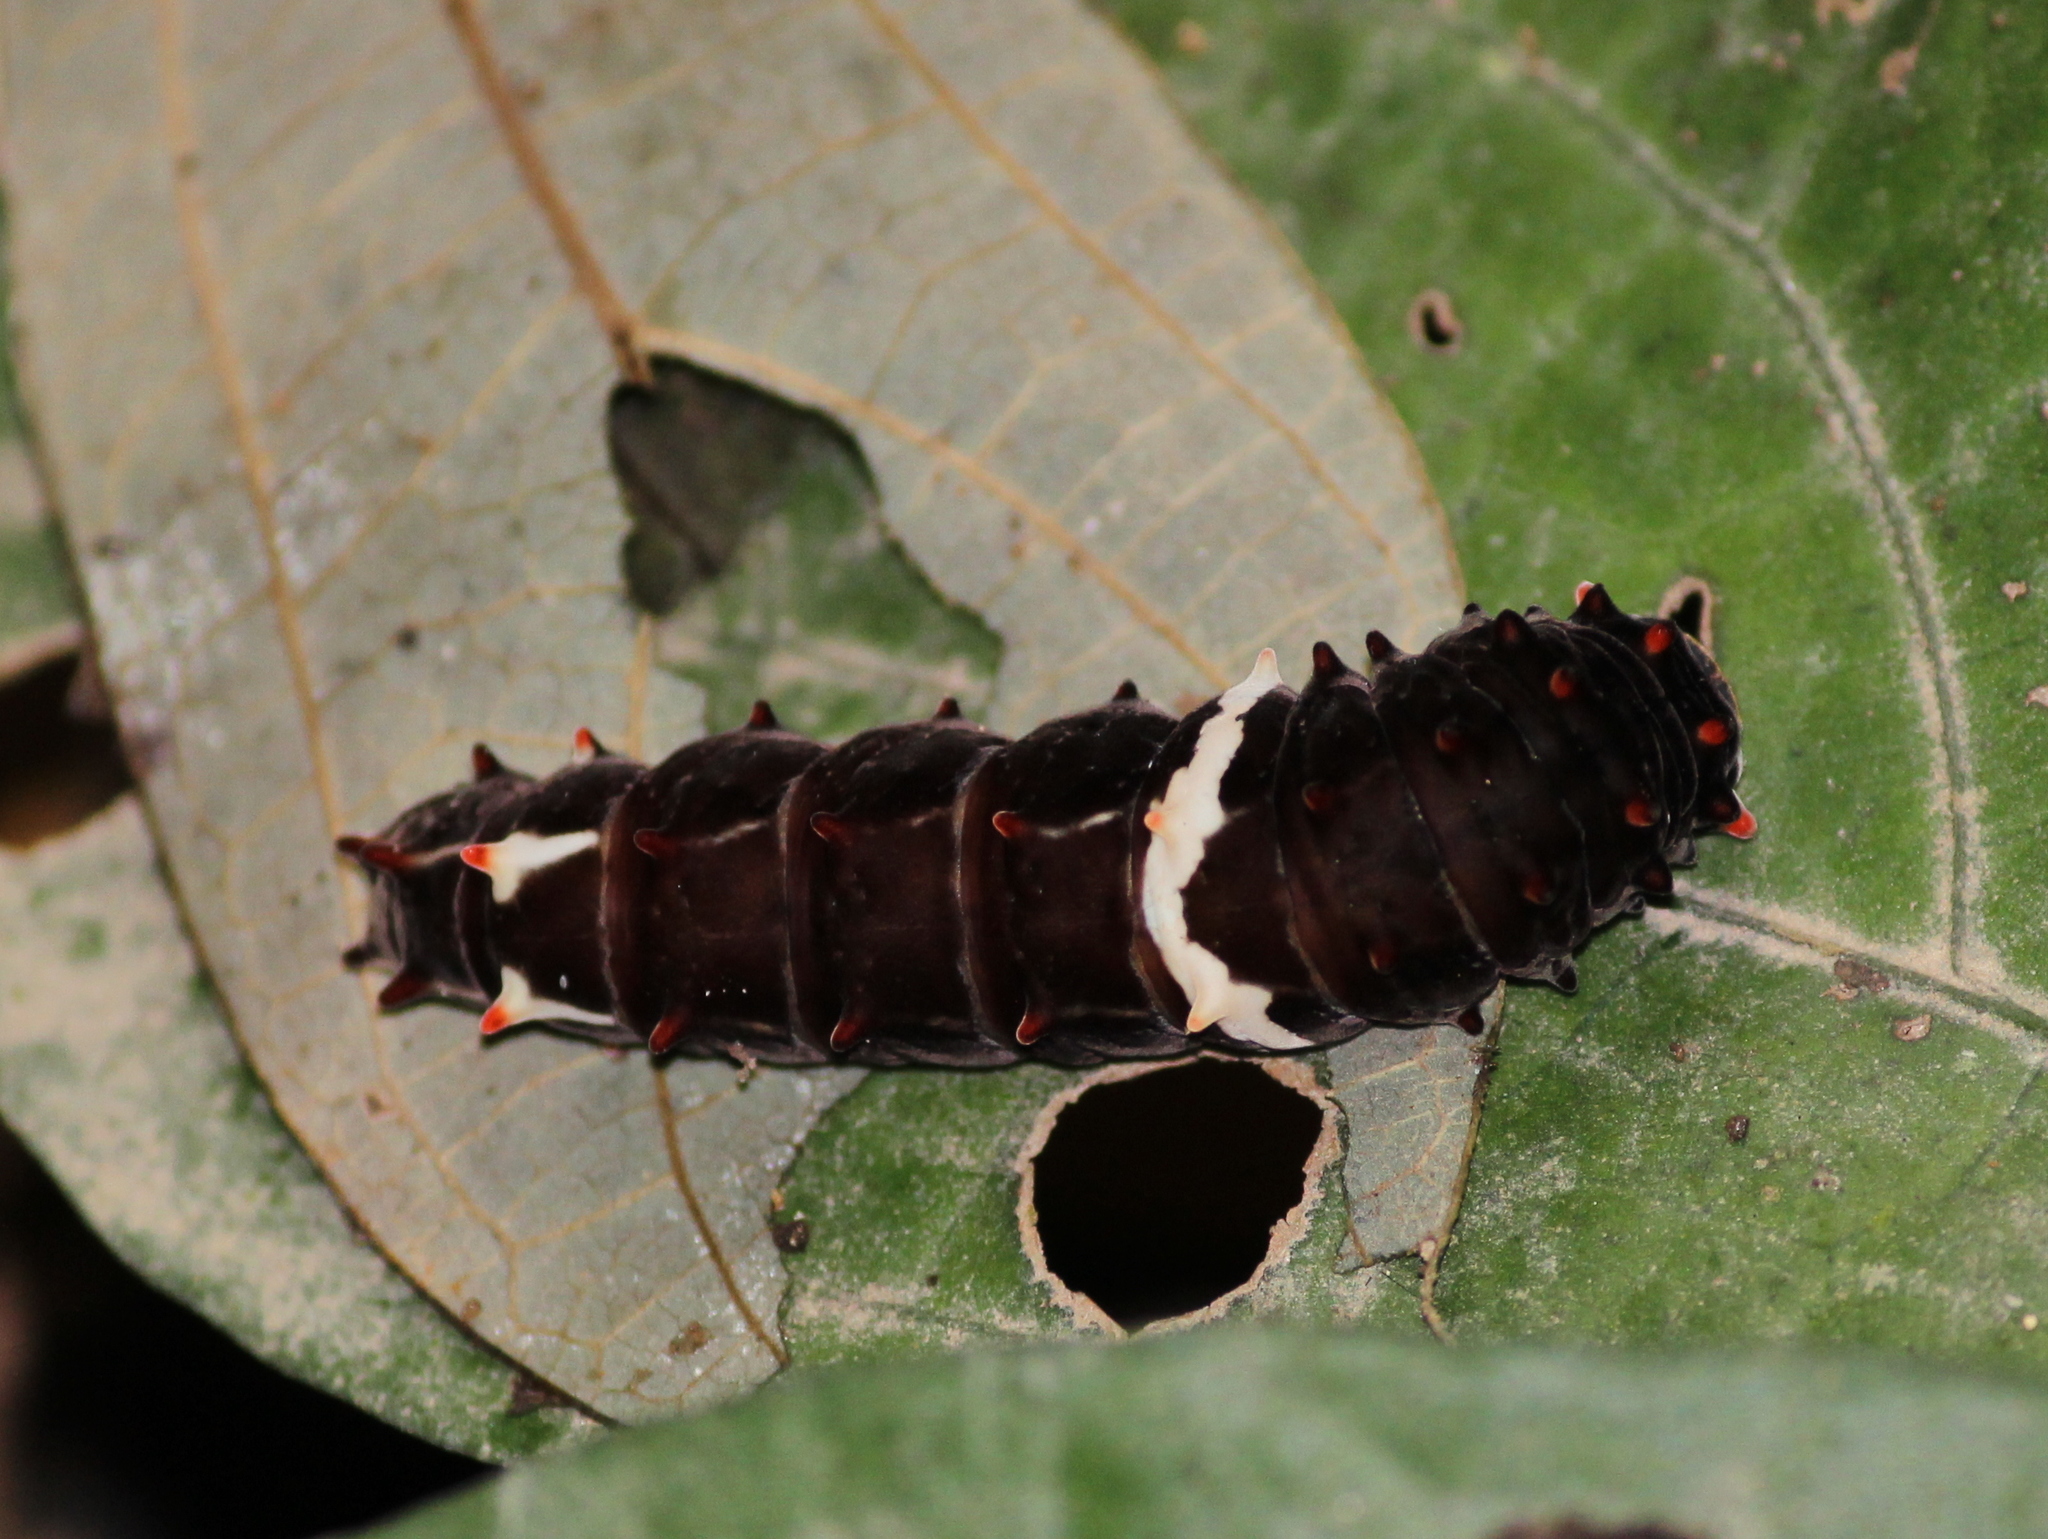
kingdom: Animalia
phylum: Arthropoda
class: Insecta
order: Lepidoptera
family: Papilionidae
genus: Pachliopta
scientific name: Pachliopta pandiyana
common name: Malabar rose
